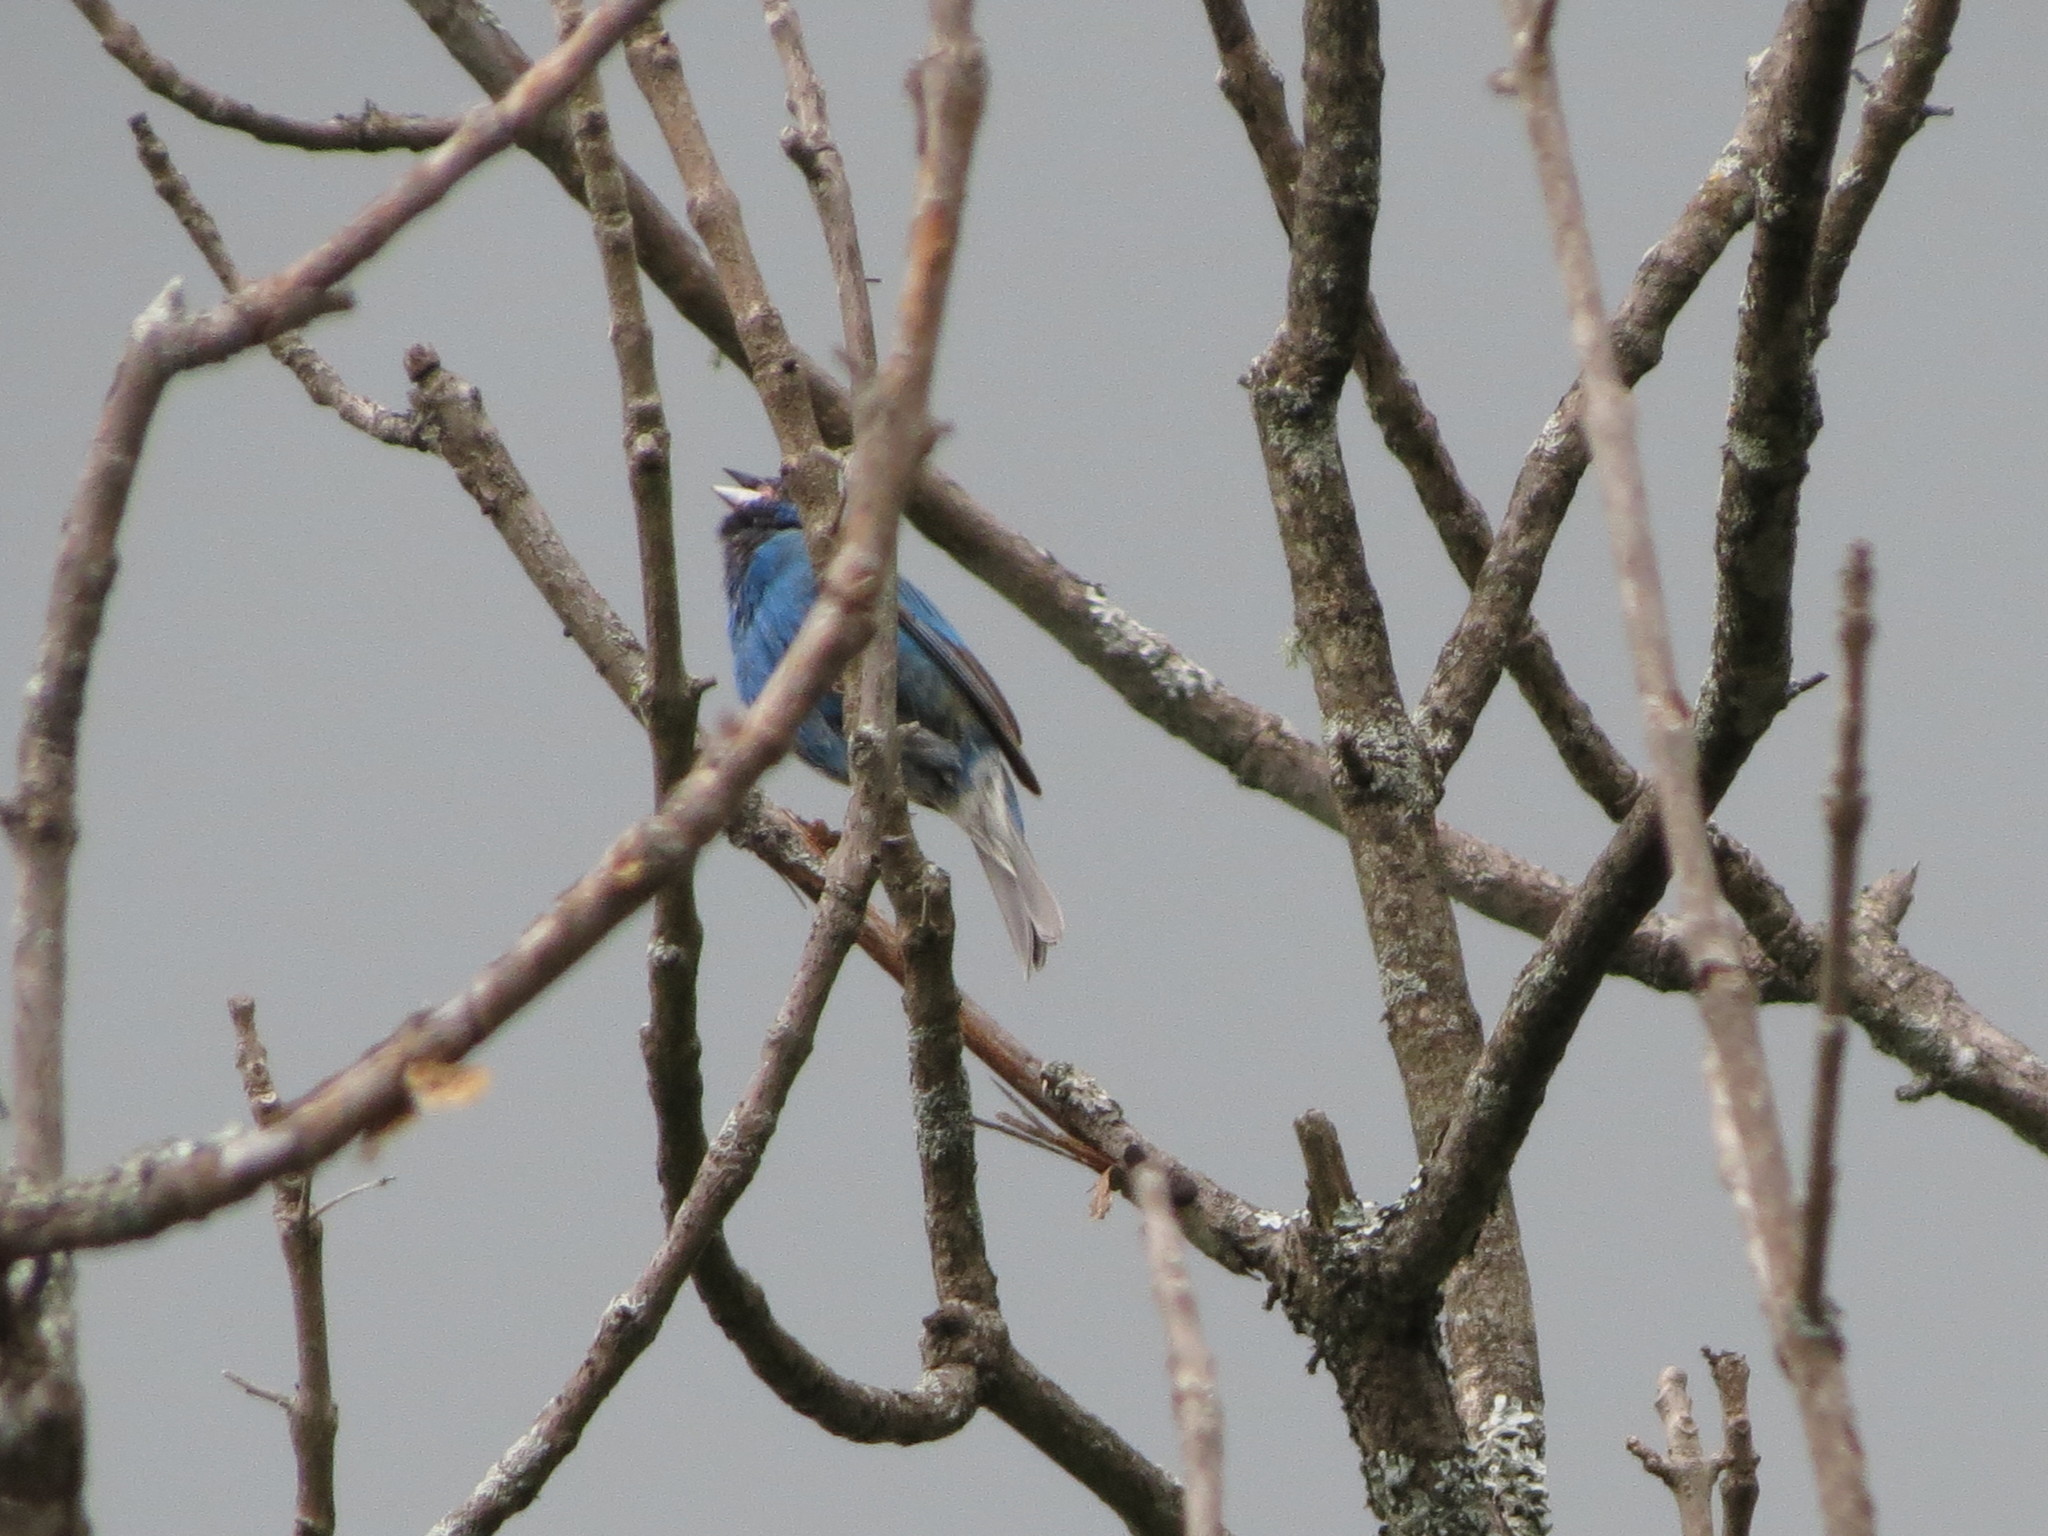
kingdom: Animalia
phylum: Chordata
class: Aves
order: Passeriformes
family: Cardinalidae
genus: Passerina
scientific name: Passerina cyanea
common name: Indigo bunting
